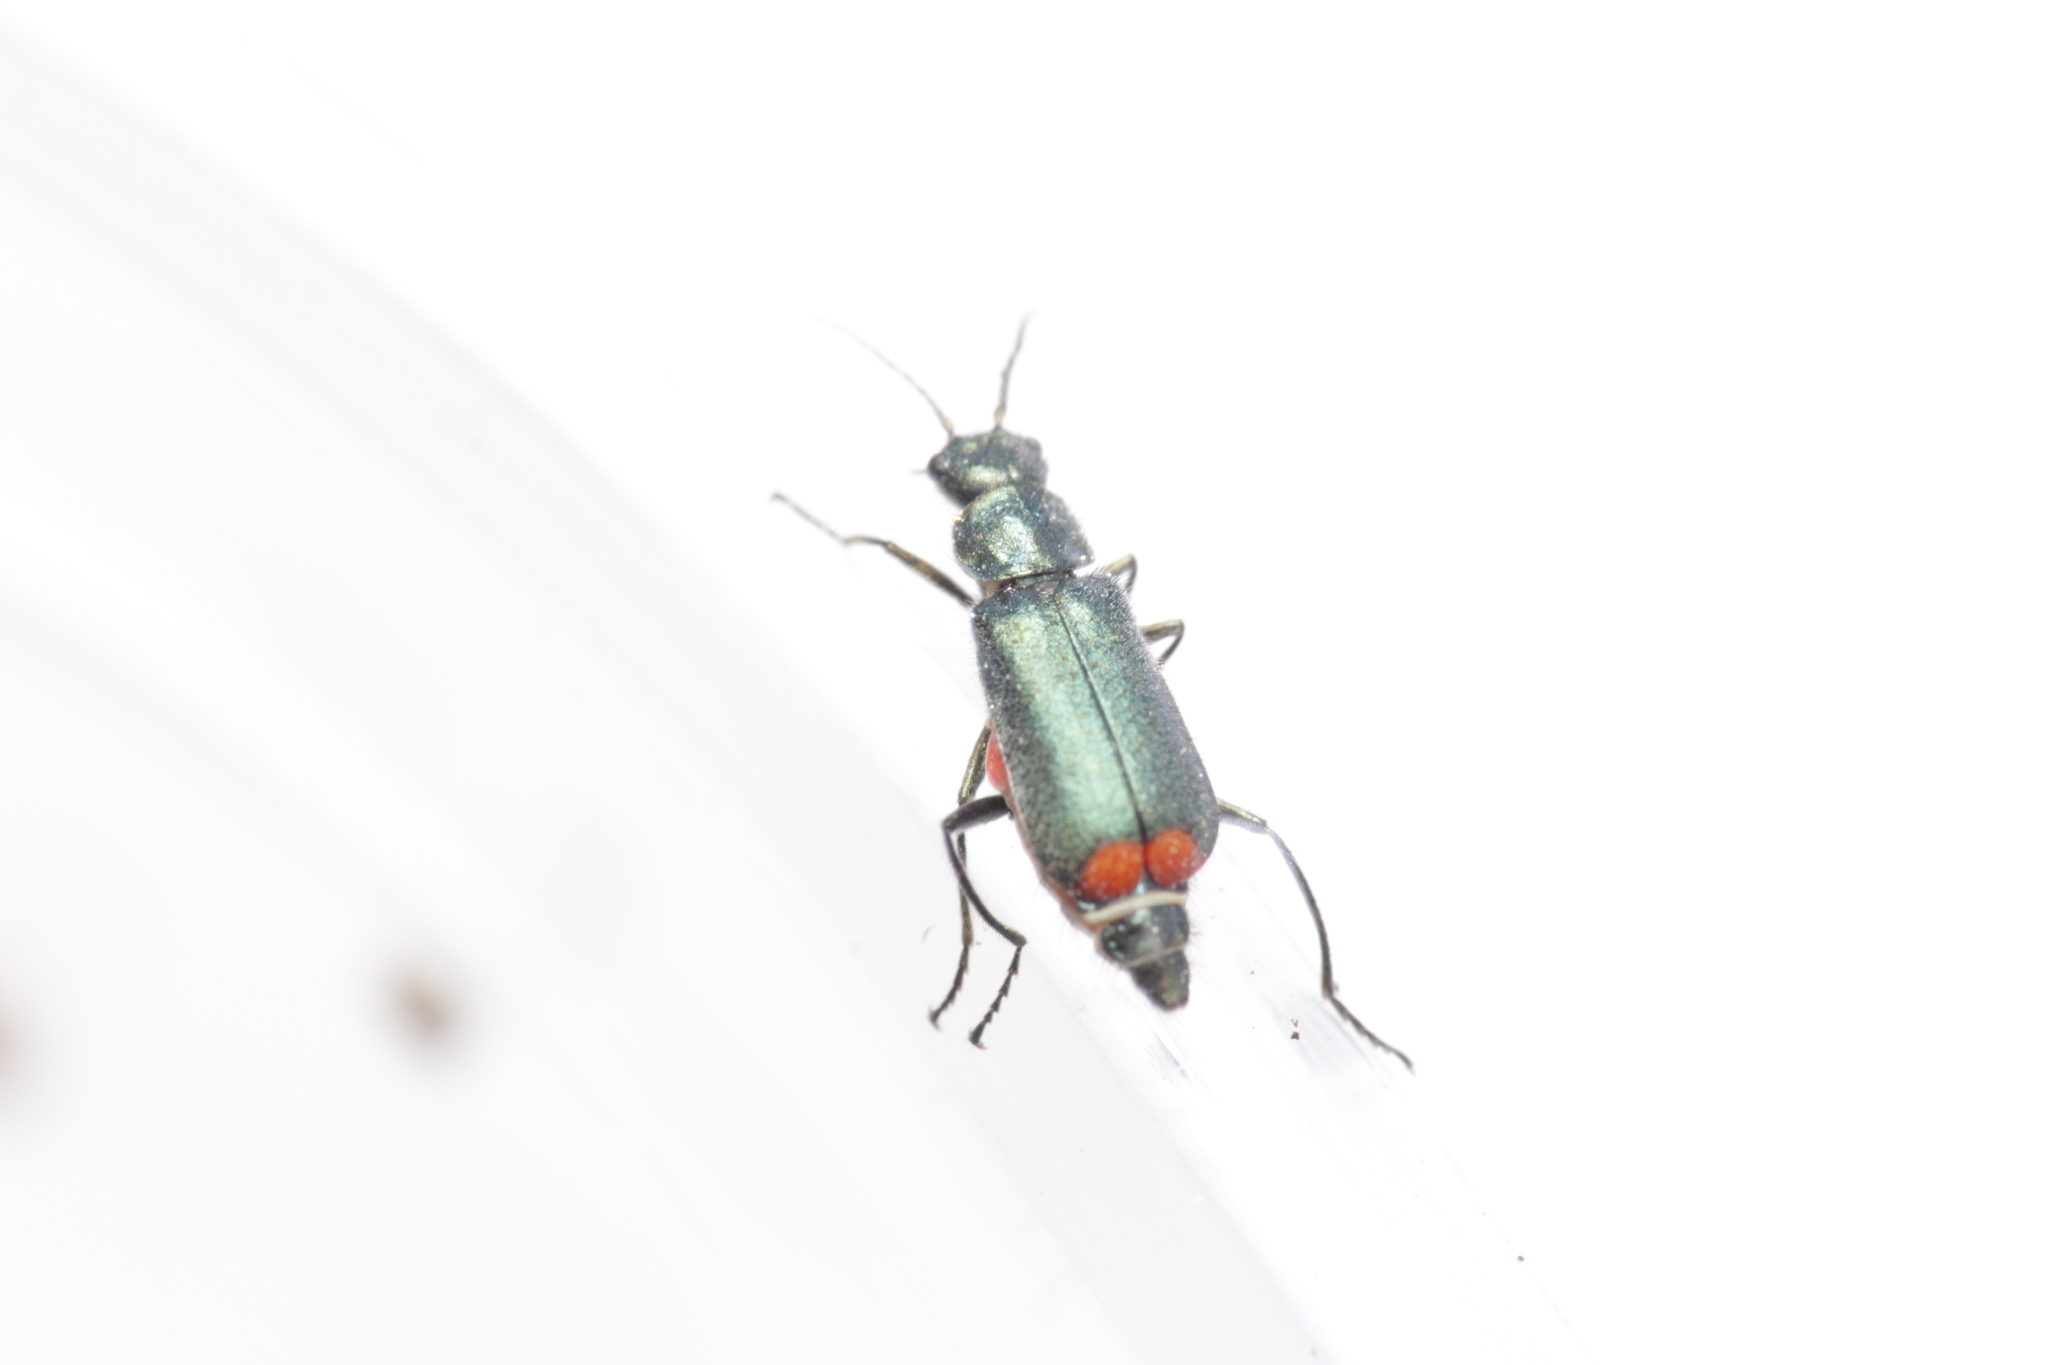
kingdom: Animalia
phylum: Arthropoda
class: Insecta
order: Coleoptera
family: Melyridae
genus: Malachius
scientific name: Malachius bipustulatus
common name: Malachite beetle
